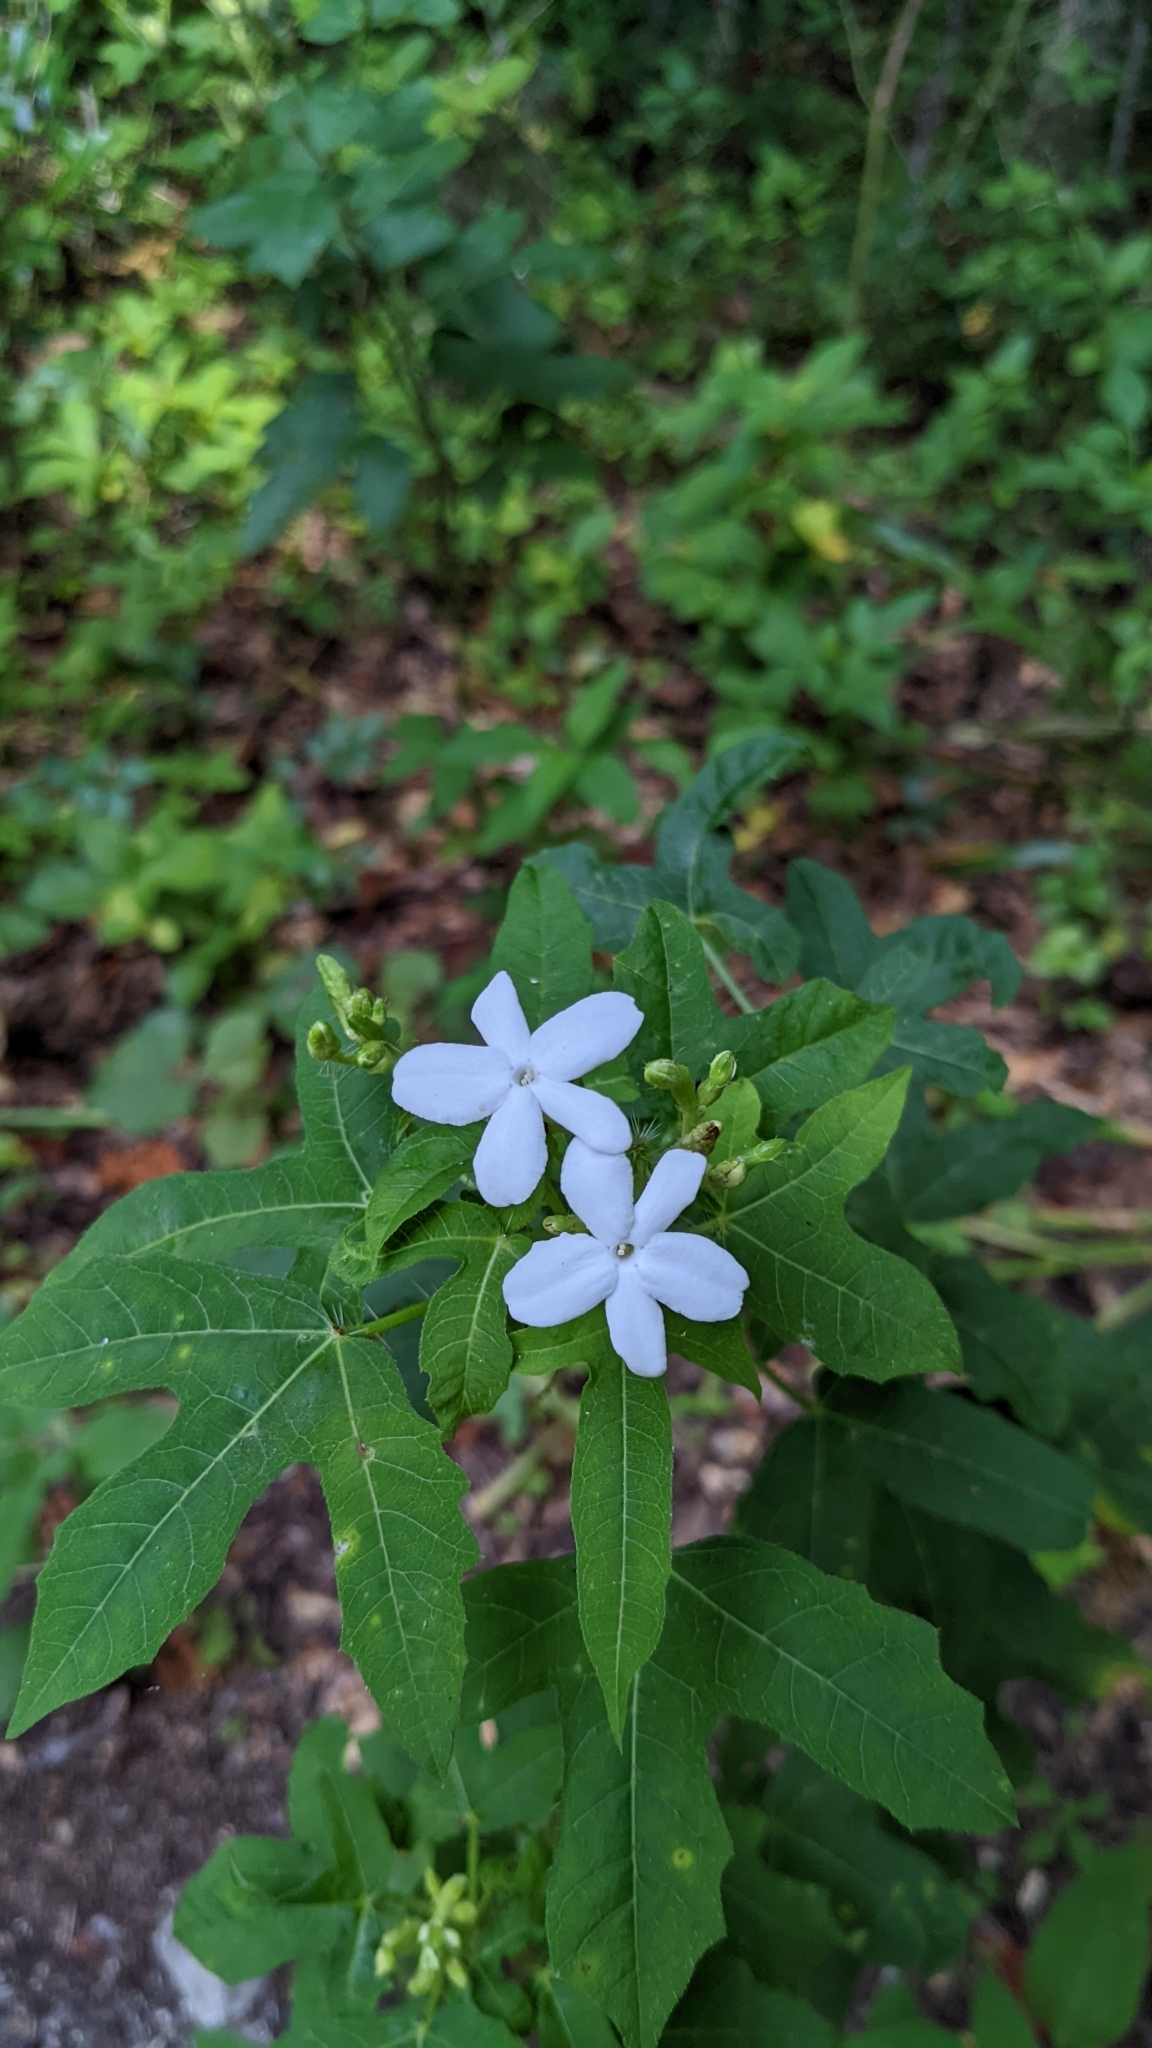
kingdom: Plantae
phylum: Tracheophyta
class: Magnoliopsida
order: Malpighiales
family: Euphorbiaceae
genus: Cnidoscolus
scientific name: Cnidoscolus stimulosus
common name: Bull-nettle
